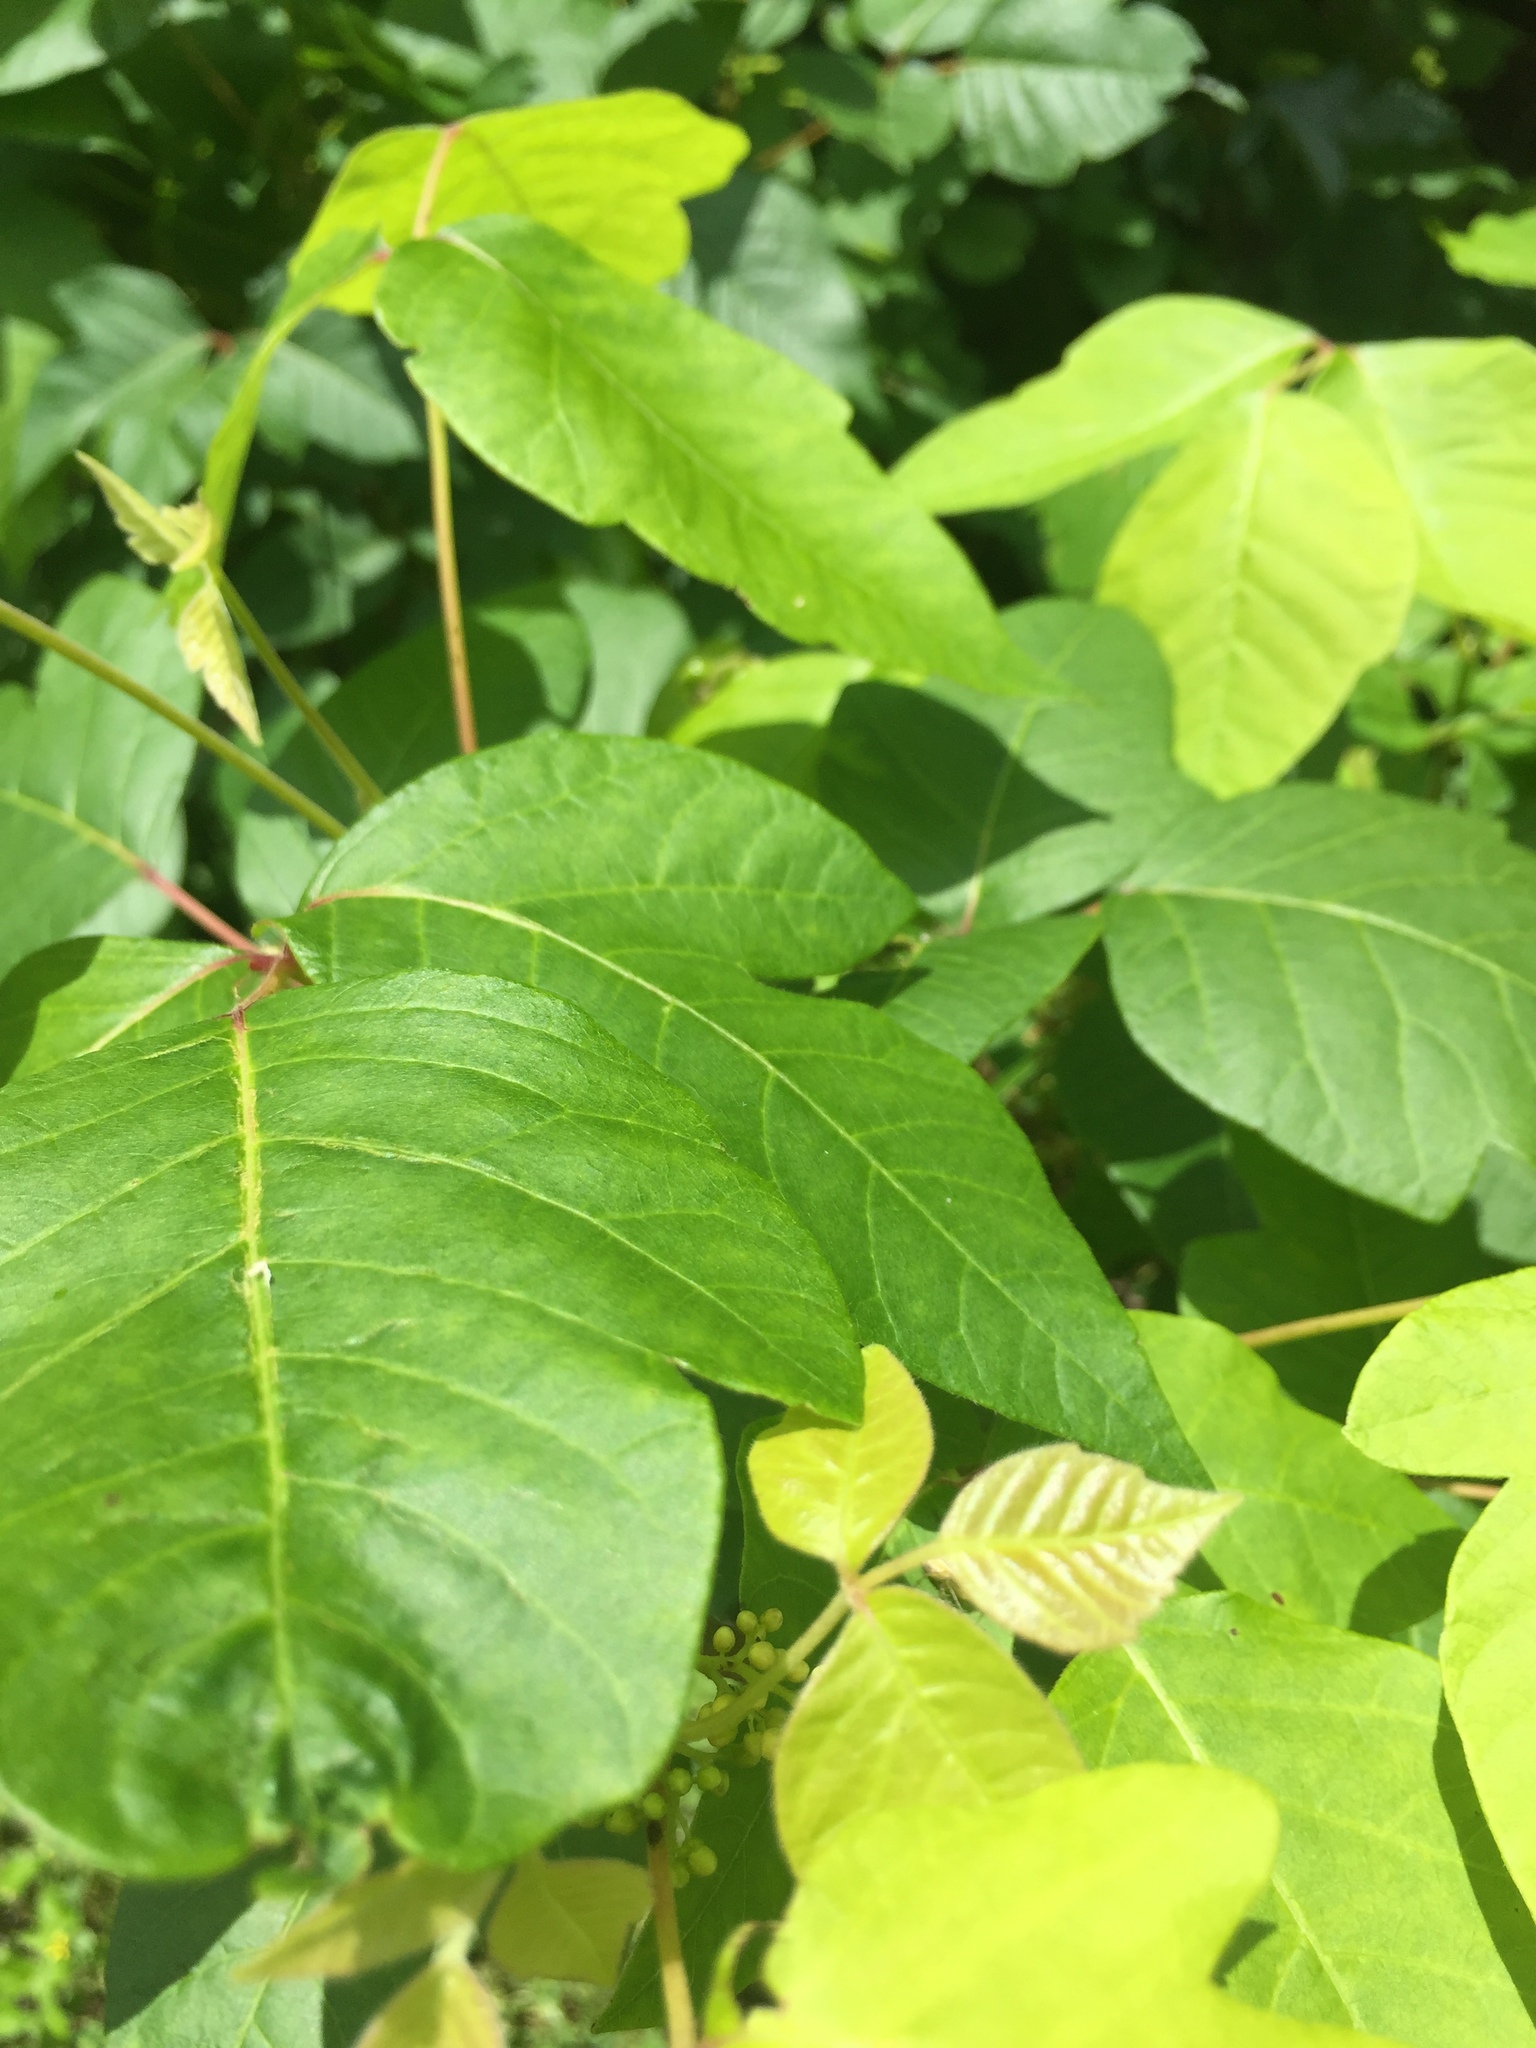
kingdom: Plantae
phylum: Tracheophyta
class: Magnoliopsida
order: Sapindales
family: Anacardiaceae
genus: Toxicodendron
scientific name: Toxicodendron radicans
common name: Poison ivy
